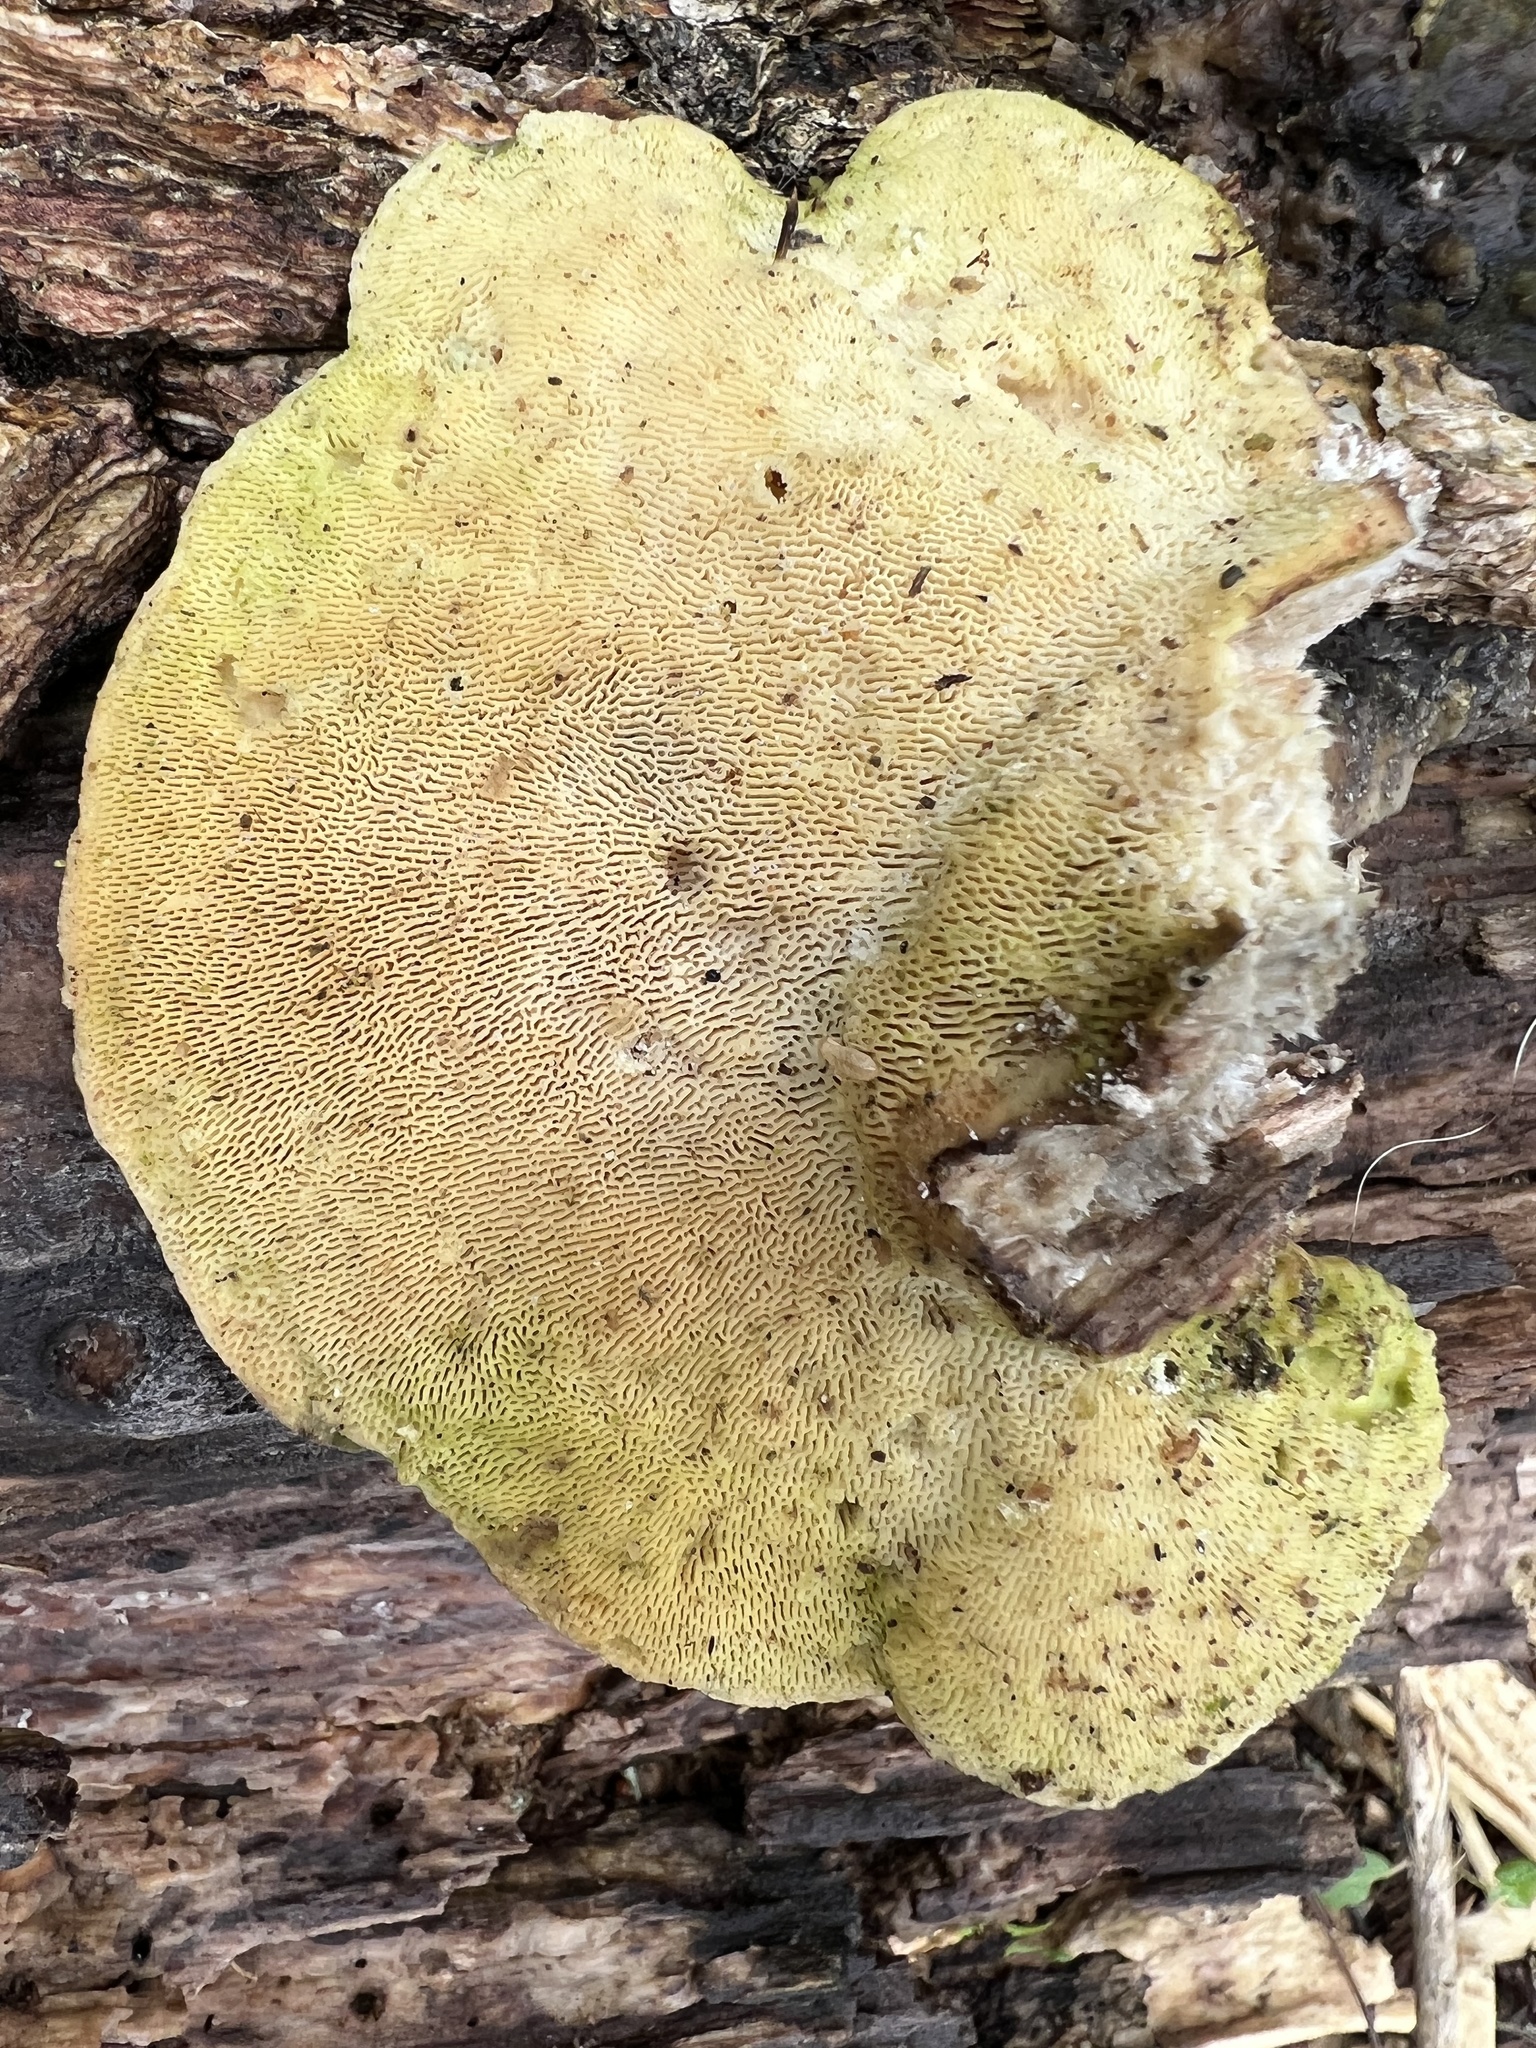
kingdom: Fungi
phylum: Basidiomycota
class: Agaricomycetes
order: Polyporales
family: Polyporaceae
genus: Trametes
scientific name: Trametes gibbosa
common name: Lumpy bracket
